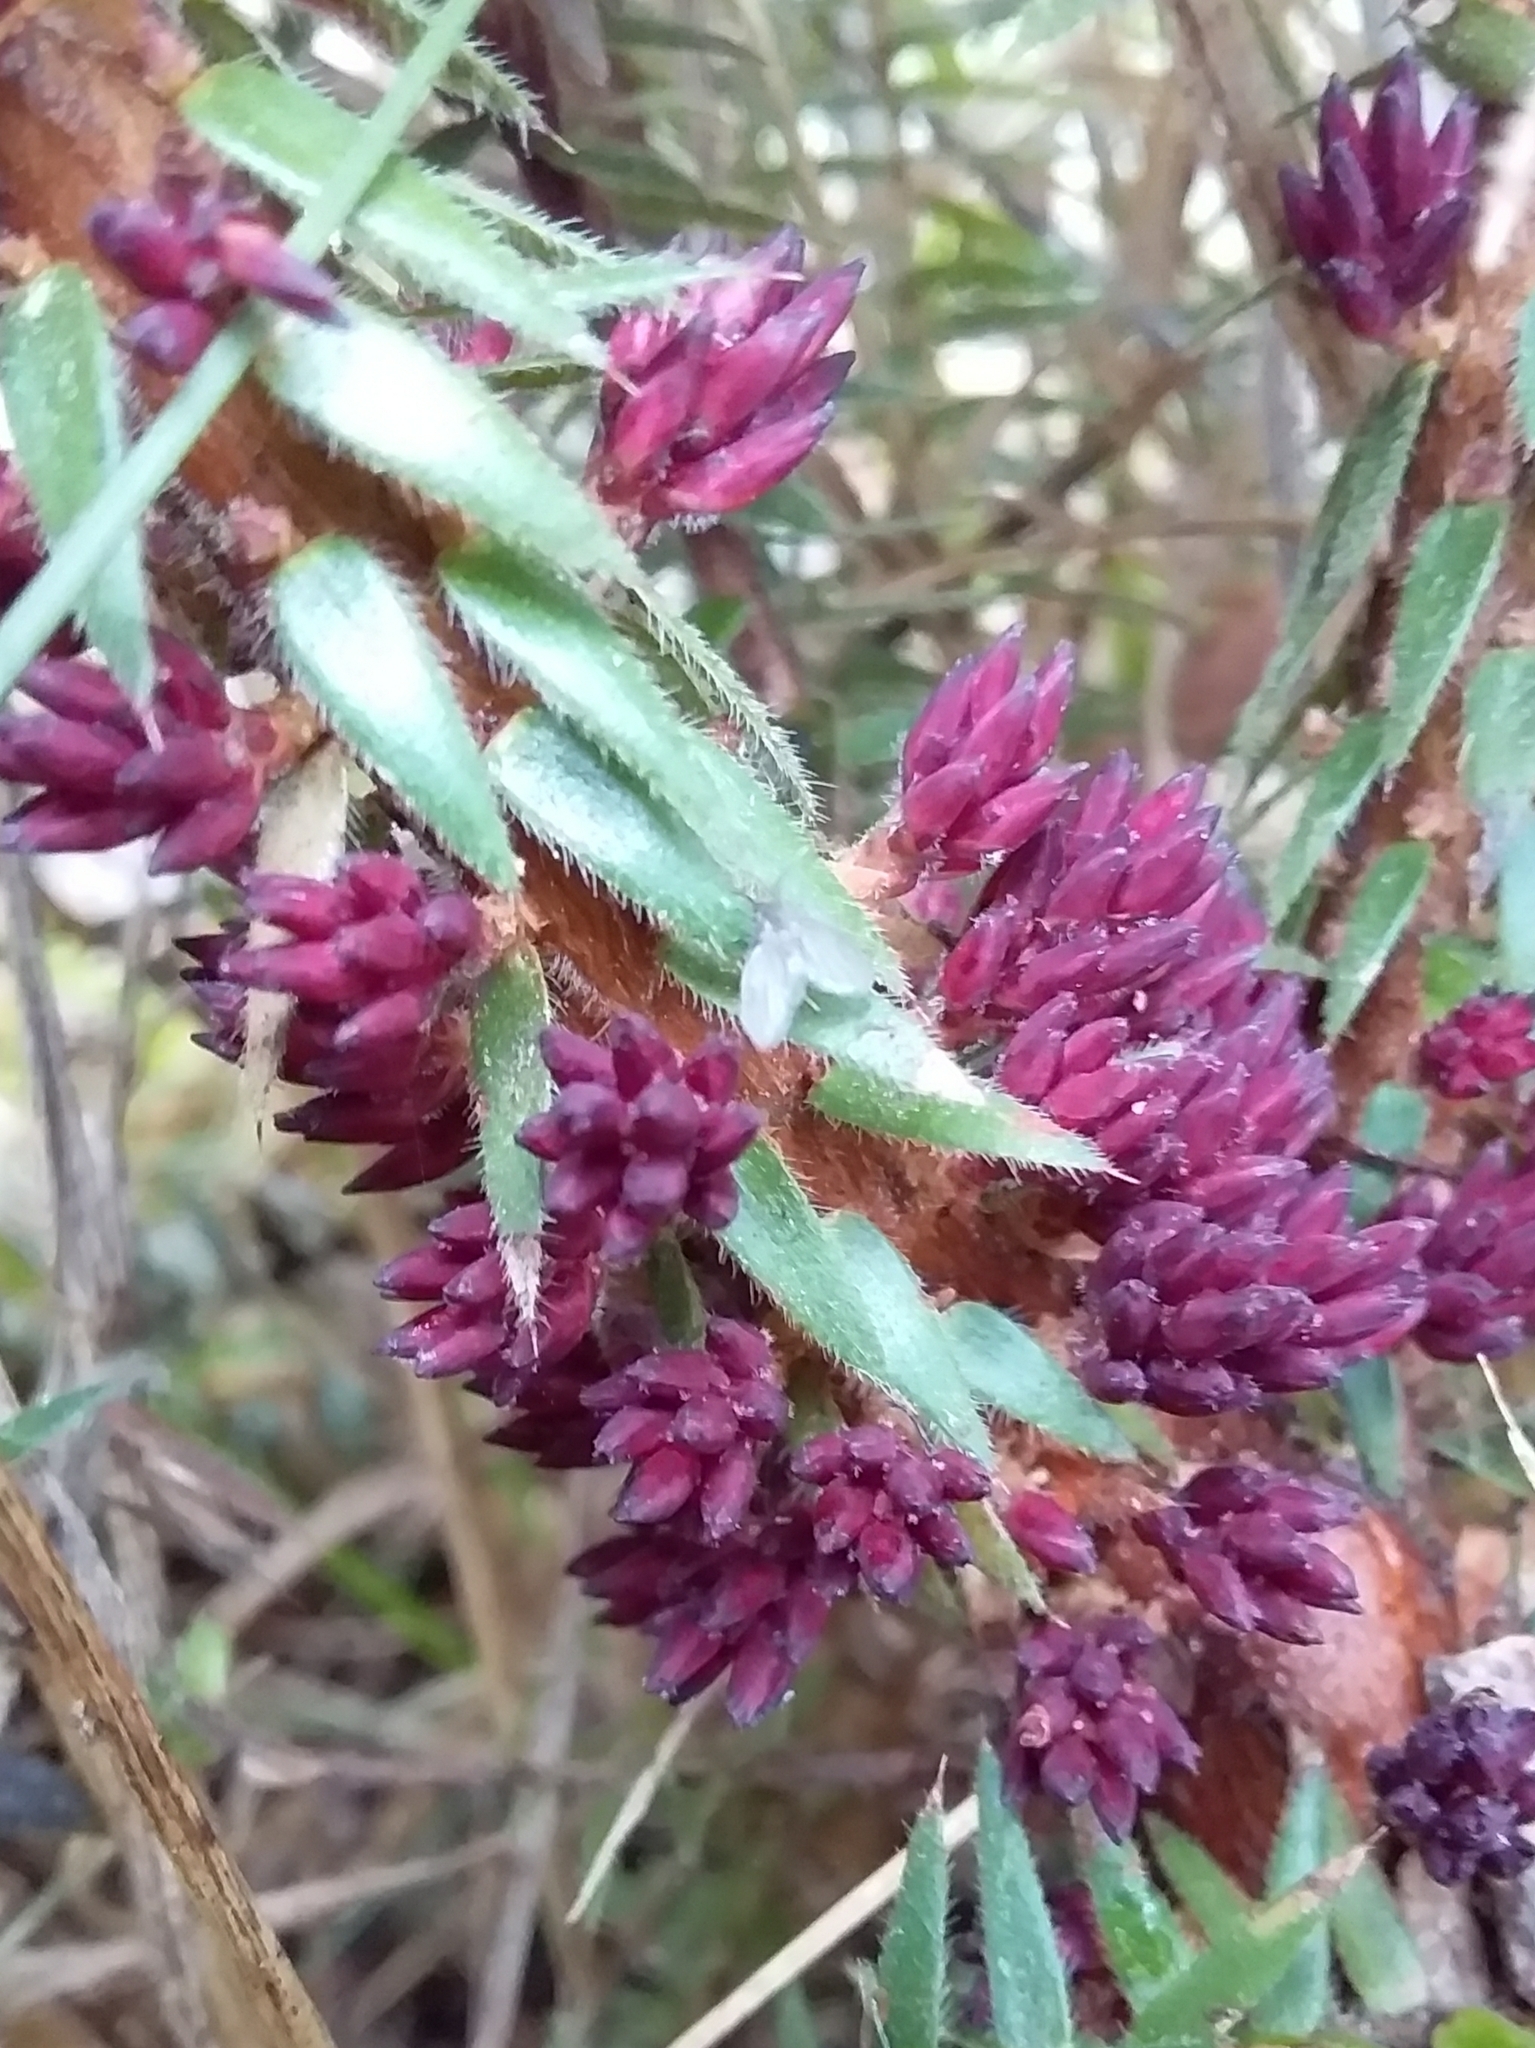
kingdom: Plantae
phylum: Tracheophyta
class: Magnoliopsida
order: Ericales
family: Ericaceae
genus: Acrotriche
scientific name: Acrotriche fasciculiflora
